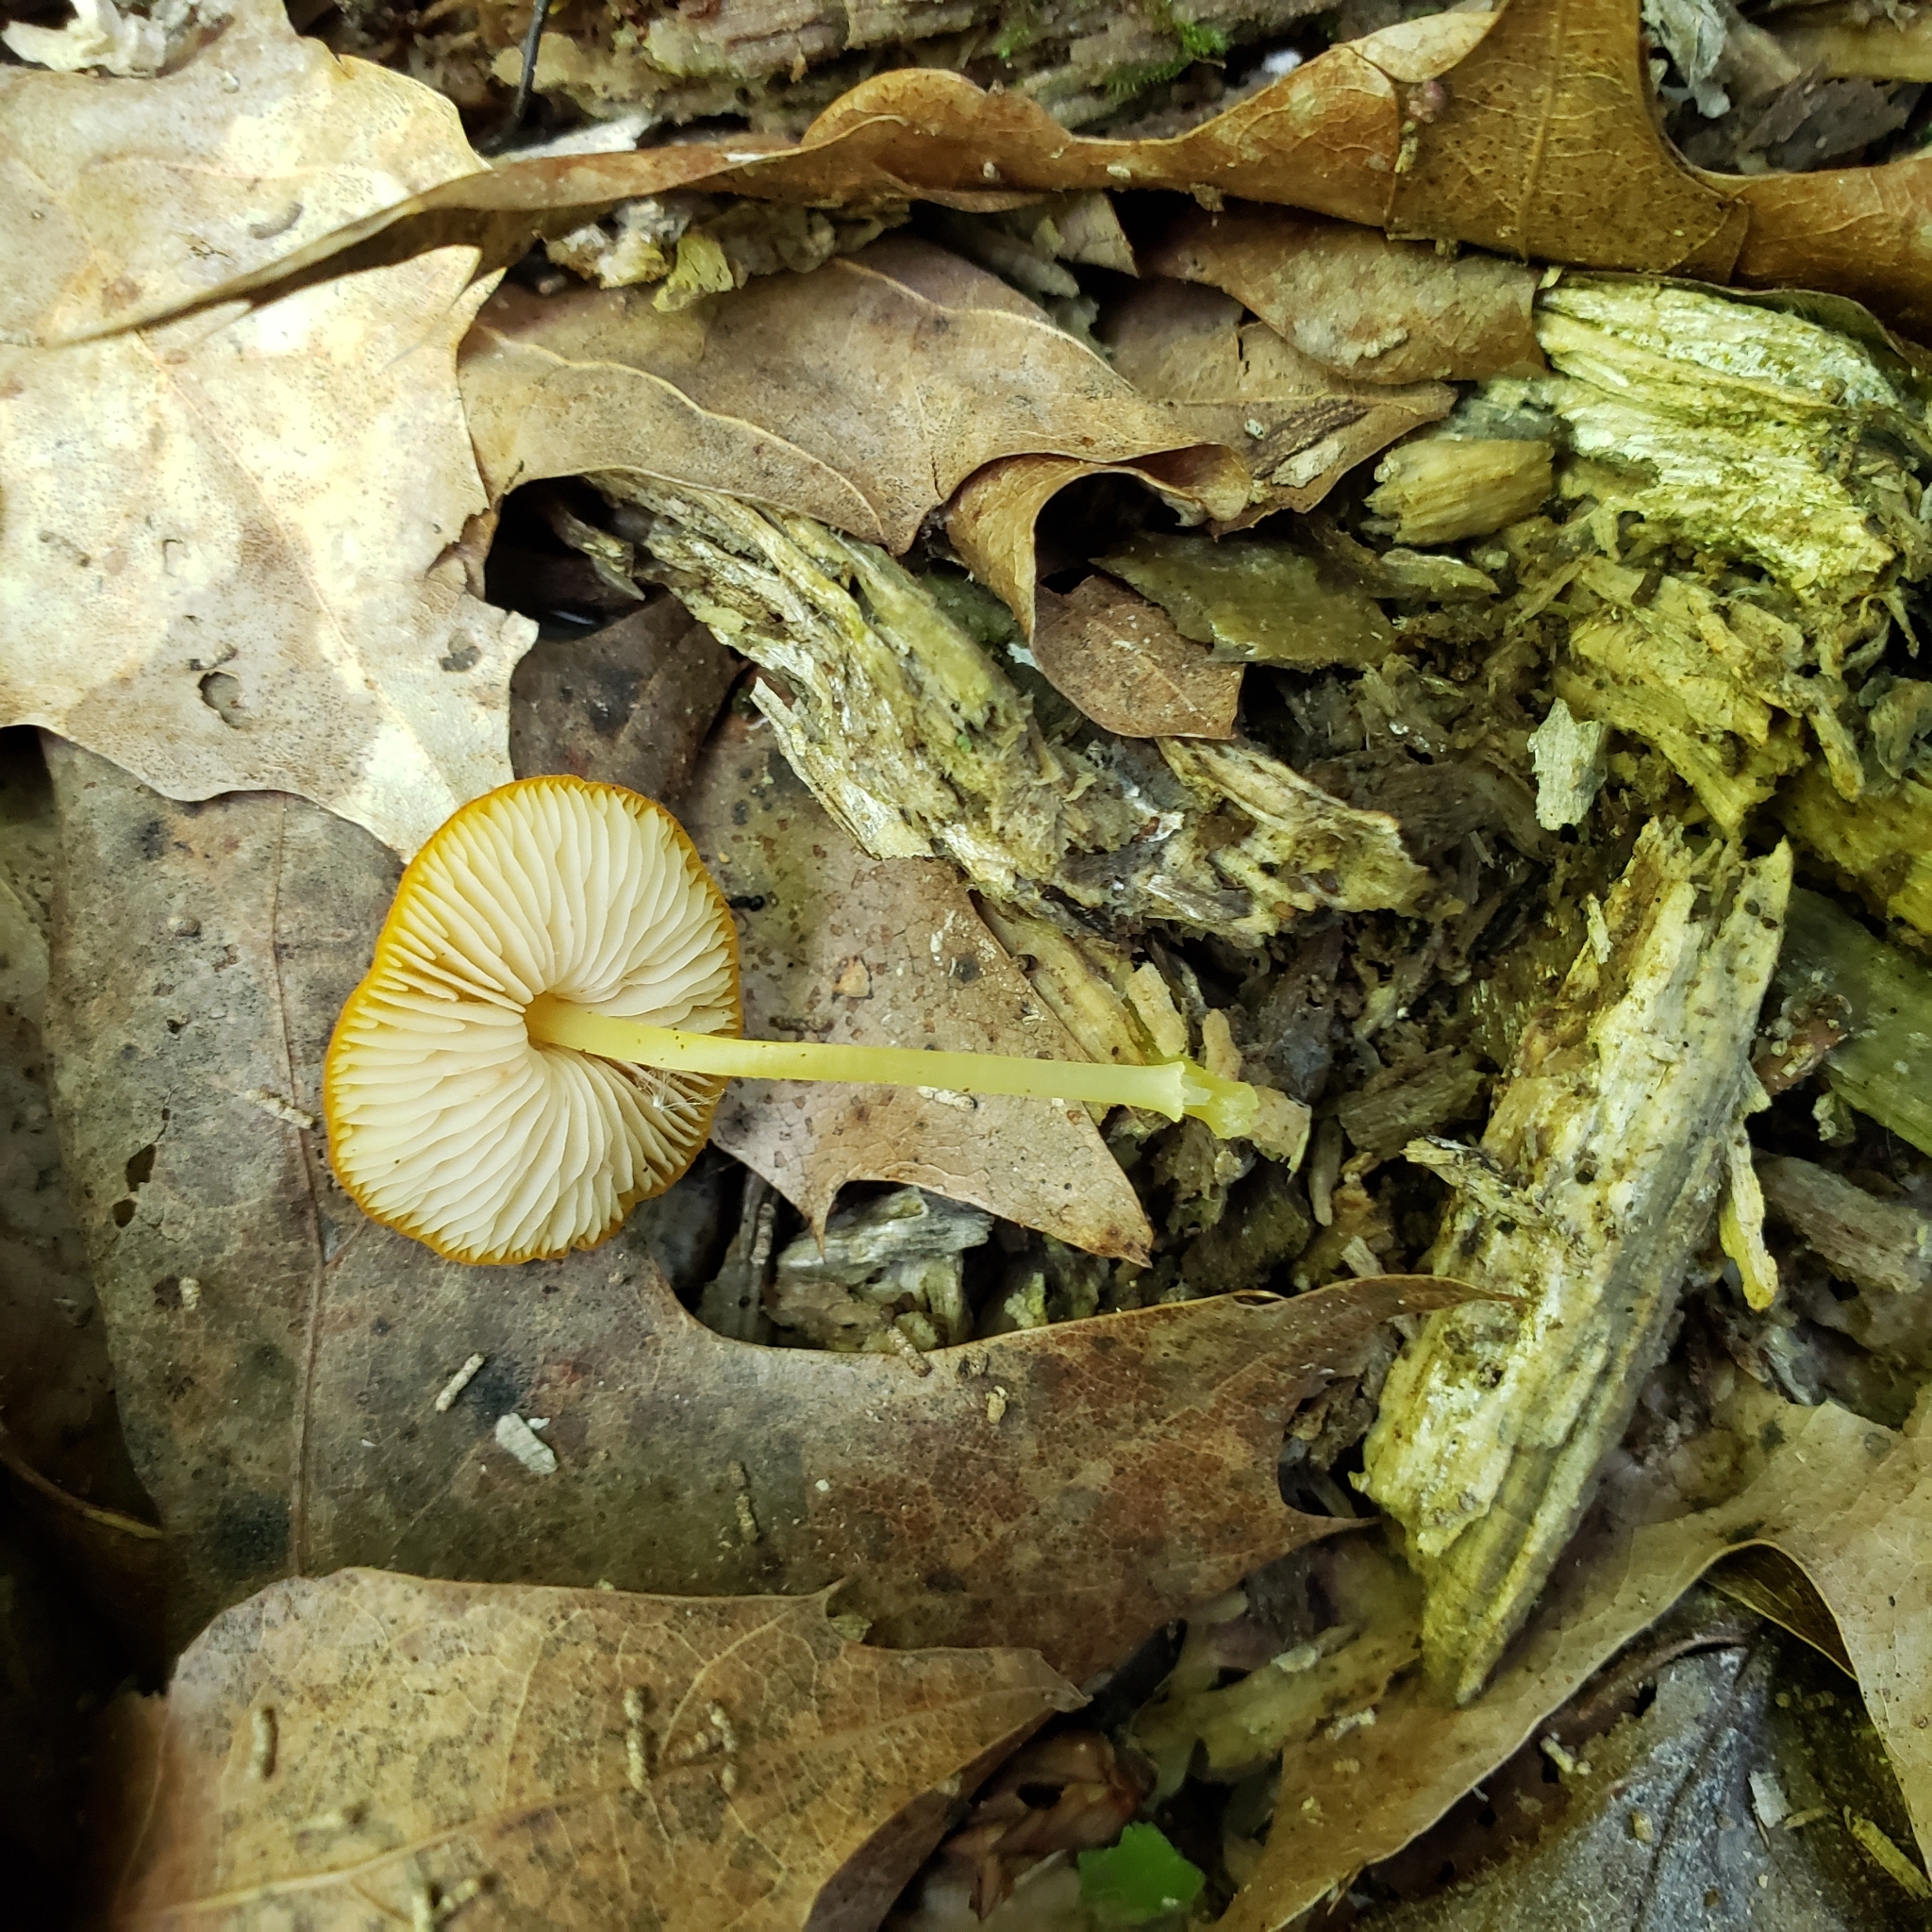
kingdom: Fungi
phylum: Basidiomycota
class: Agaricomycetes
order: Agaricales
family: Pluteaceae
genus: Pluteus
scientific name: Pluteus chrysophlebius
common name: Yellow deer mushroom
